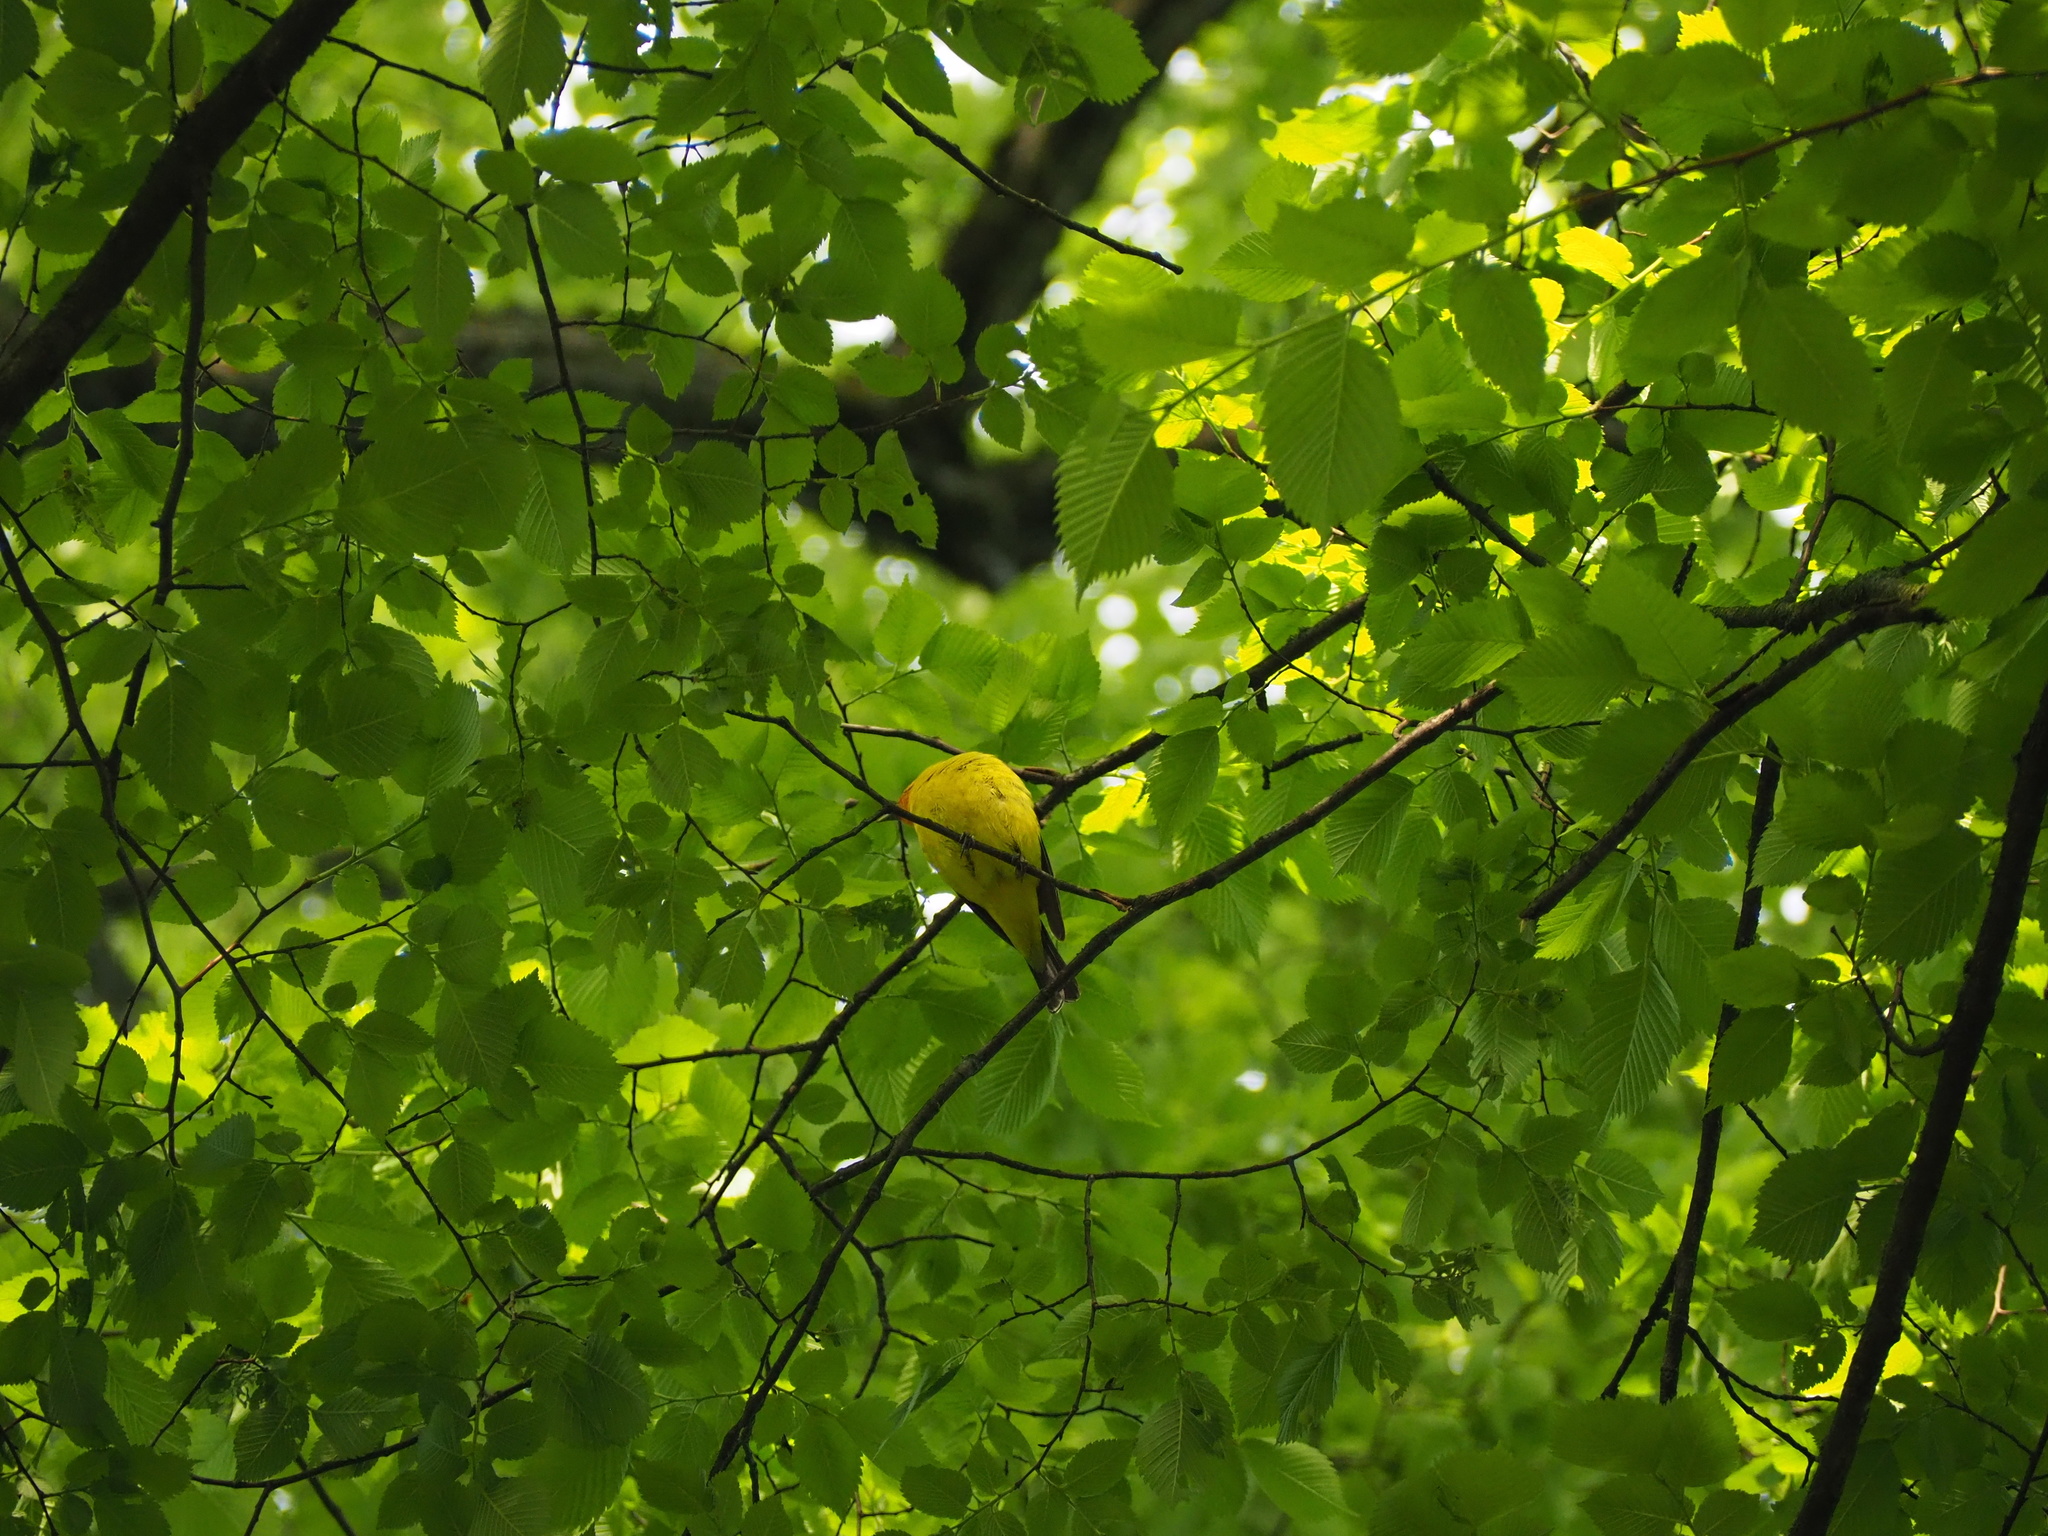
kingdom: Animalia
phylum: Chordata
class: Aves
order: Passeriformes
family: Cardinalidae
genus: Piranga
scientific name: Piranga ludoviciana
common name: Western tanager
